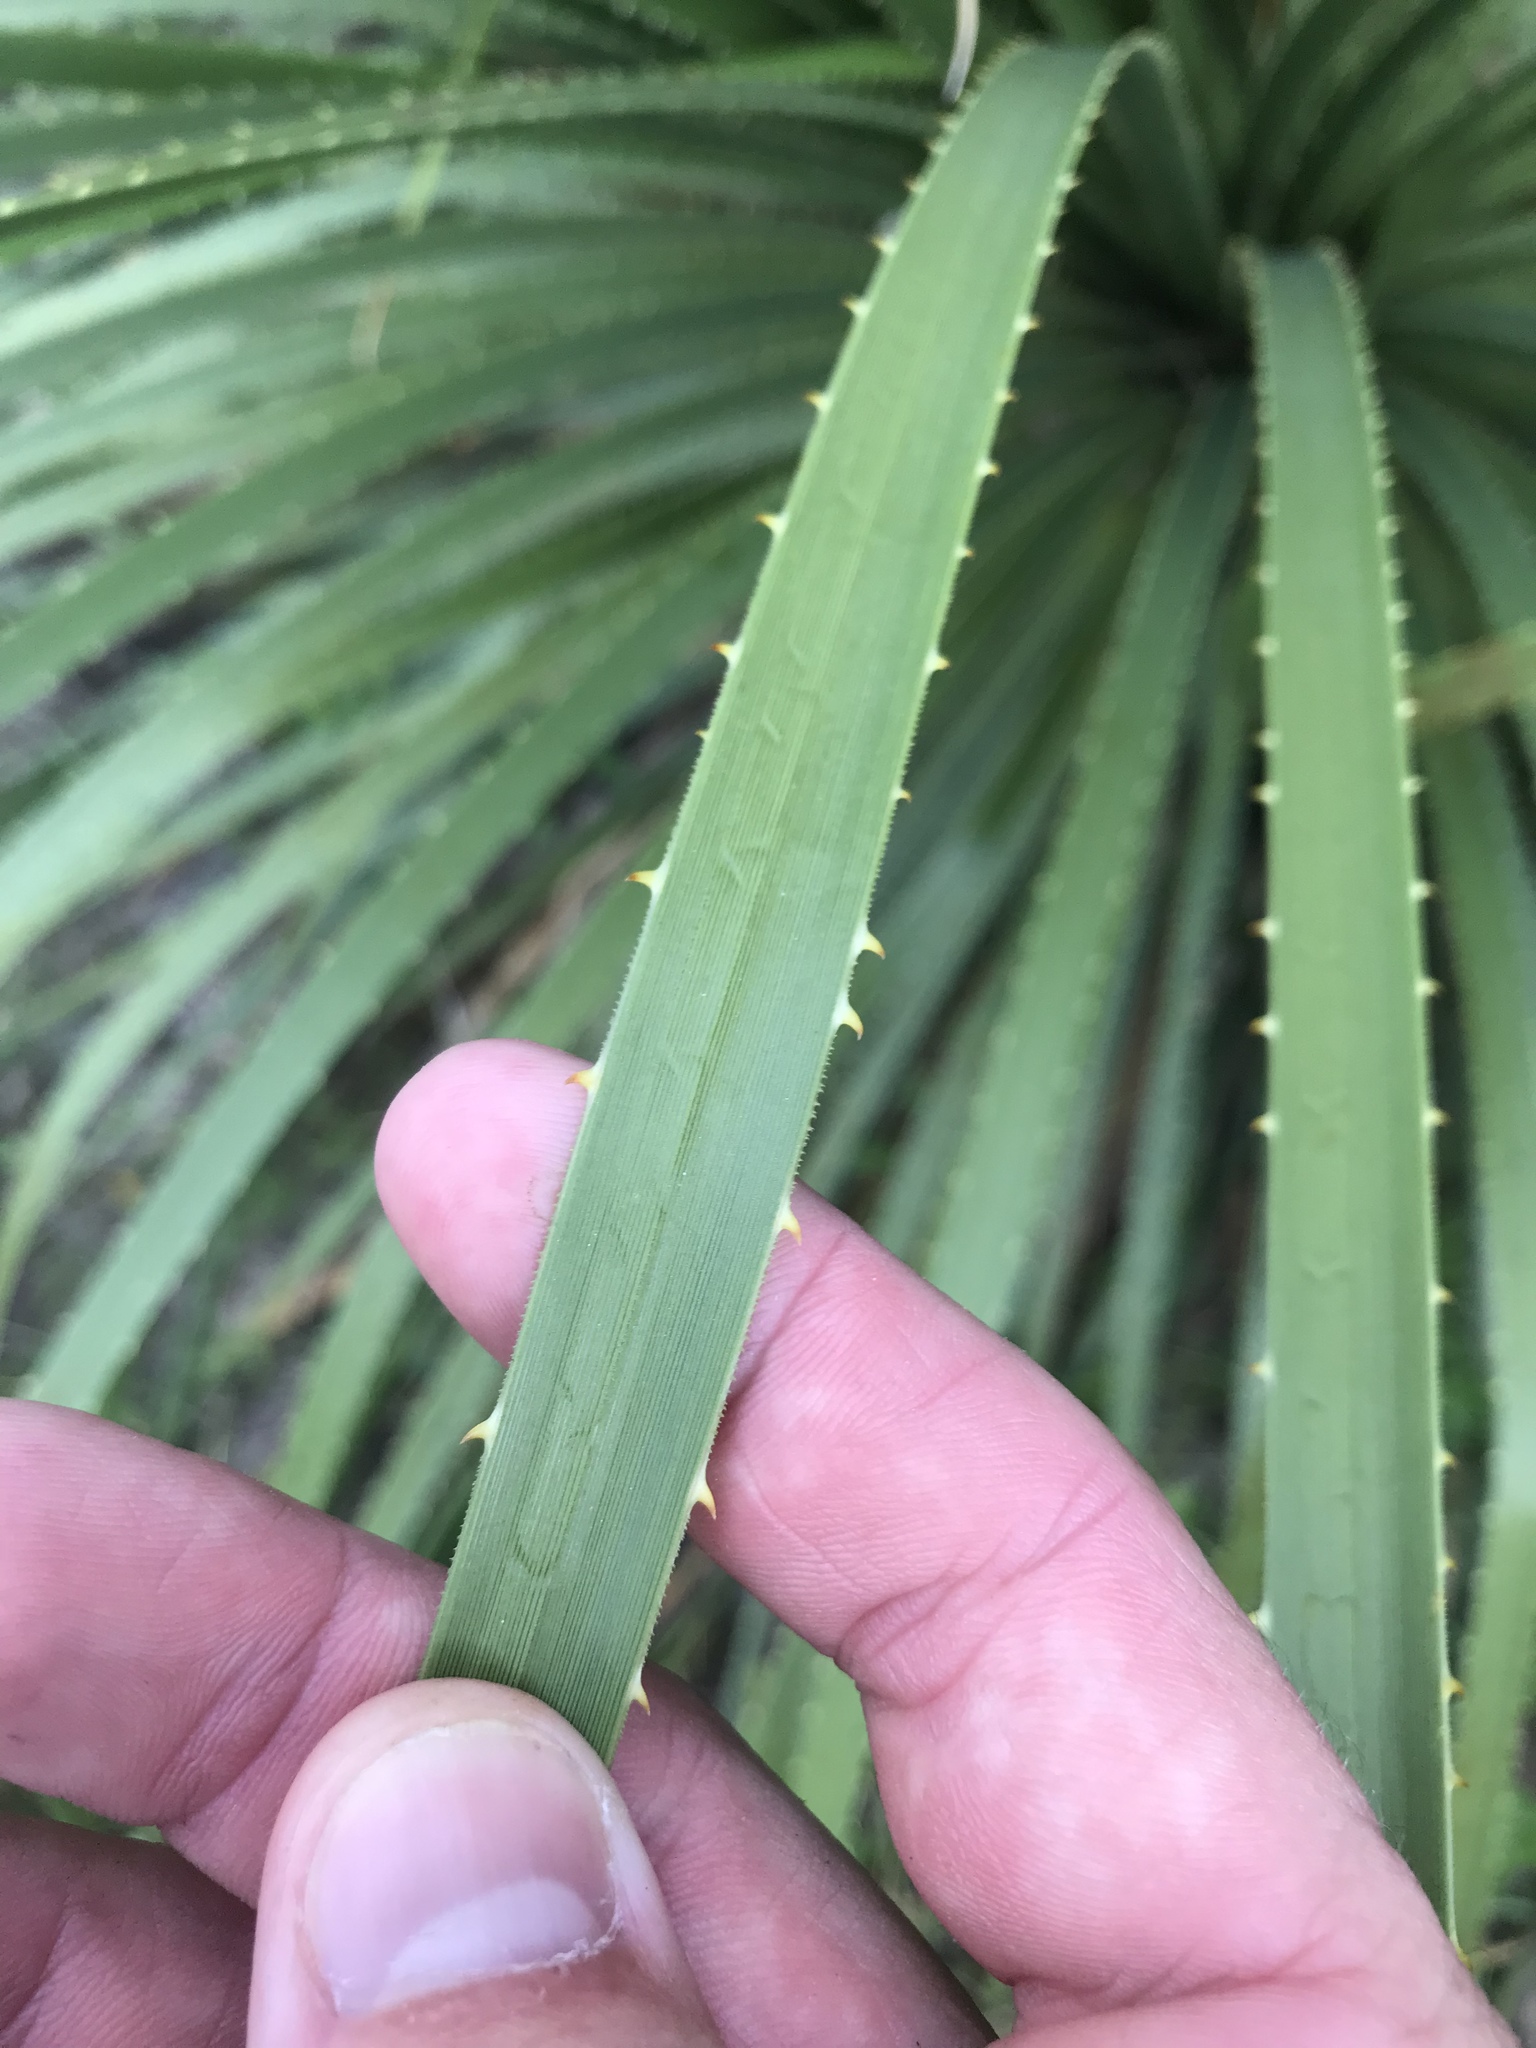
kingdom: Plantae
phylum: Tracheophyta
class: Liliopsida
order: Asparagales
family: Asparagaceae
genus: Dasylirion
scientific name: Dasylirion texanum
